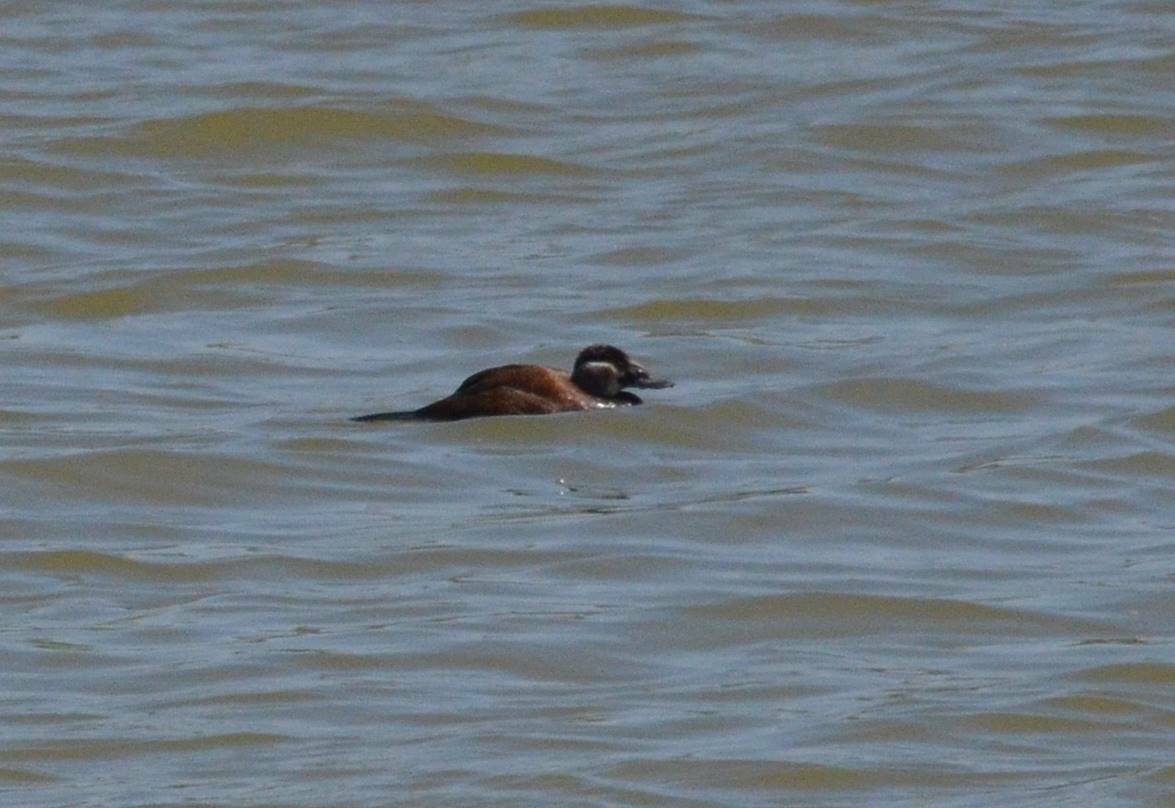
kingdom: Animalia
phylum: Chordata
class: Aves
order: Anseriformes
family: Anatidae
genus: Oxyura
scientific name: Oxyura leucocephala
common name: White-headed duck
